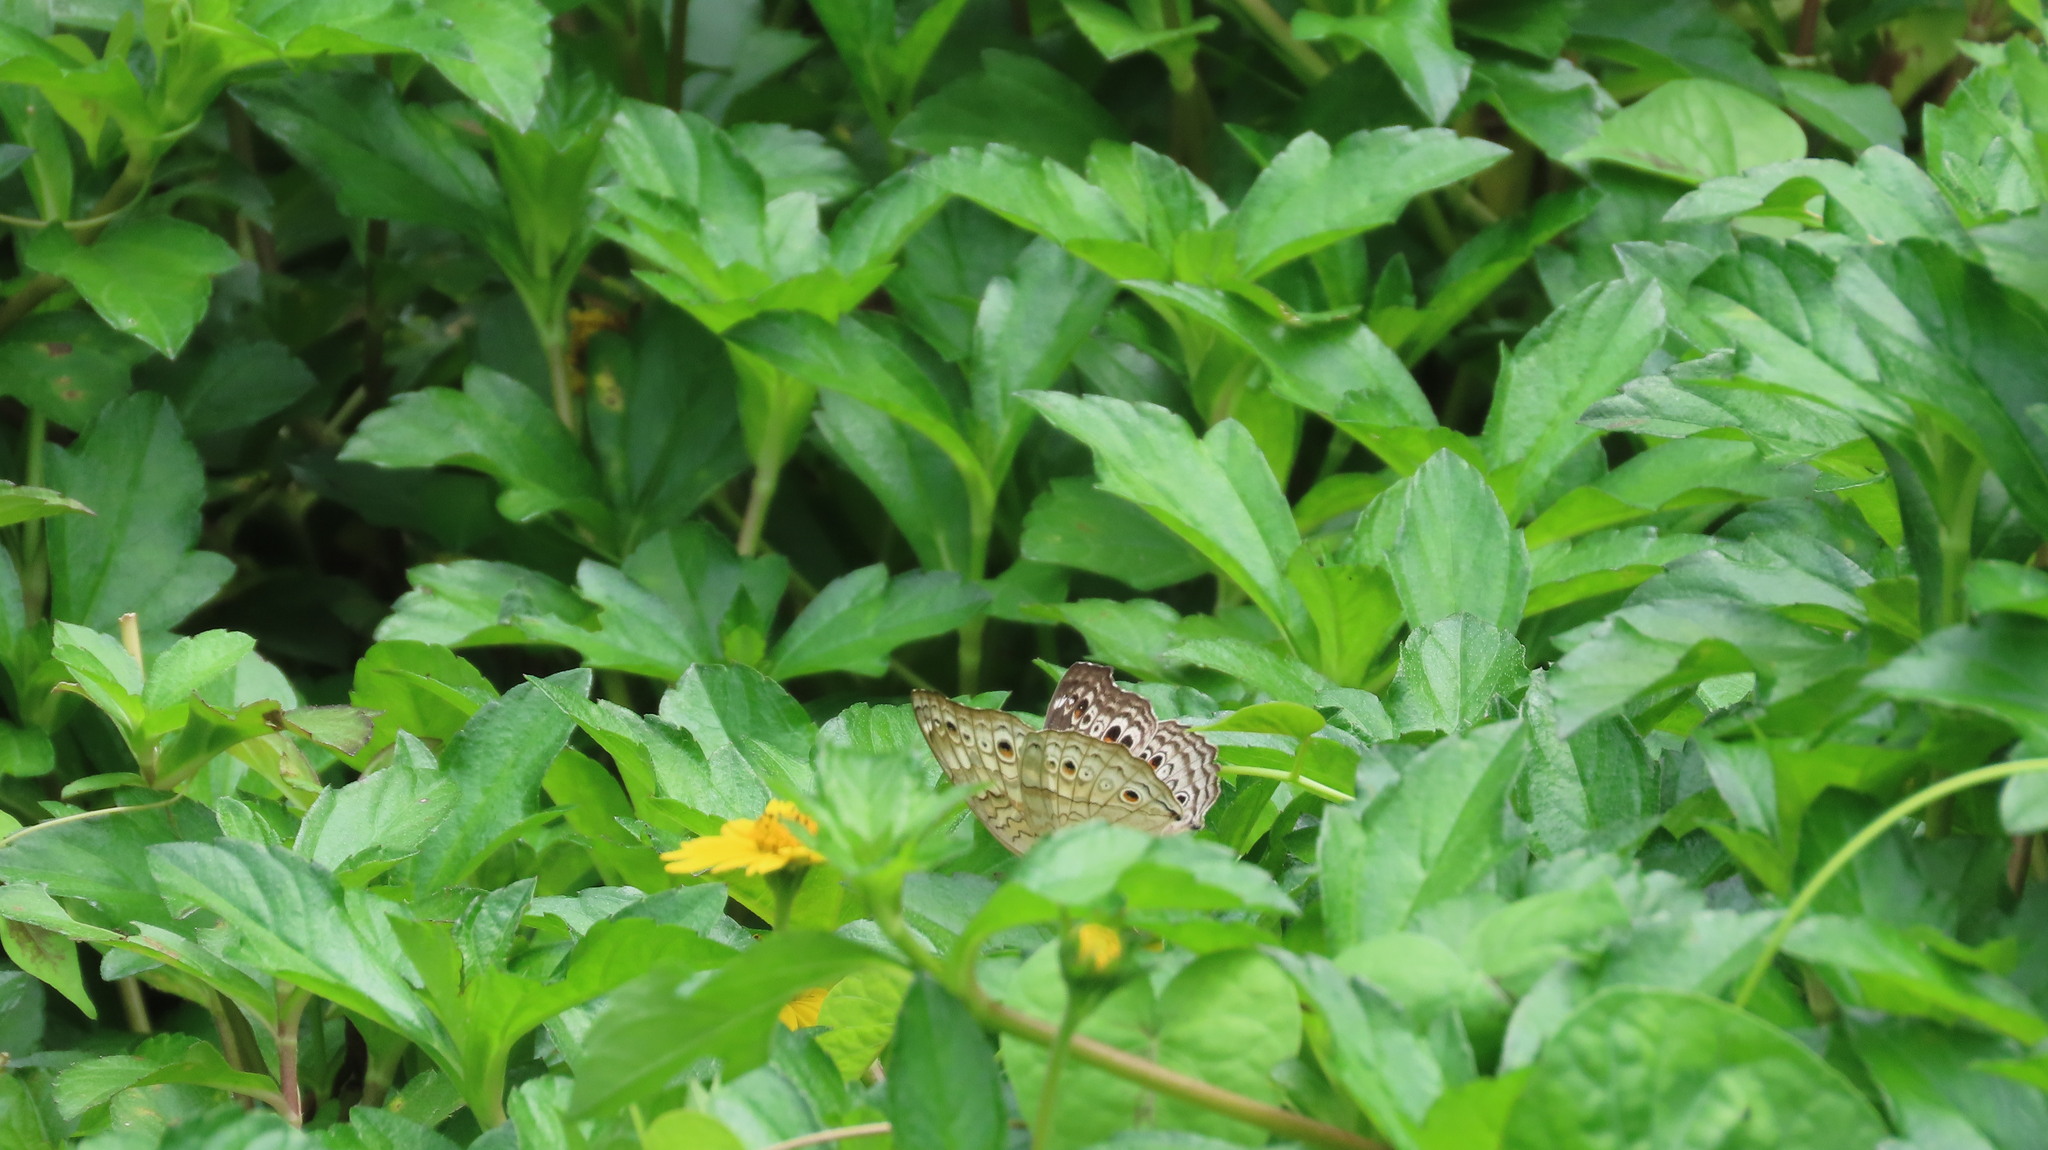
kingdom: Animalia
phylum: Arthropoda
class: Insecta
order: Lepidoptera
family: Nymphalidae
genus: Junonia
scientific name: Junonia atlites
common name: Grey pansy
